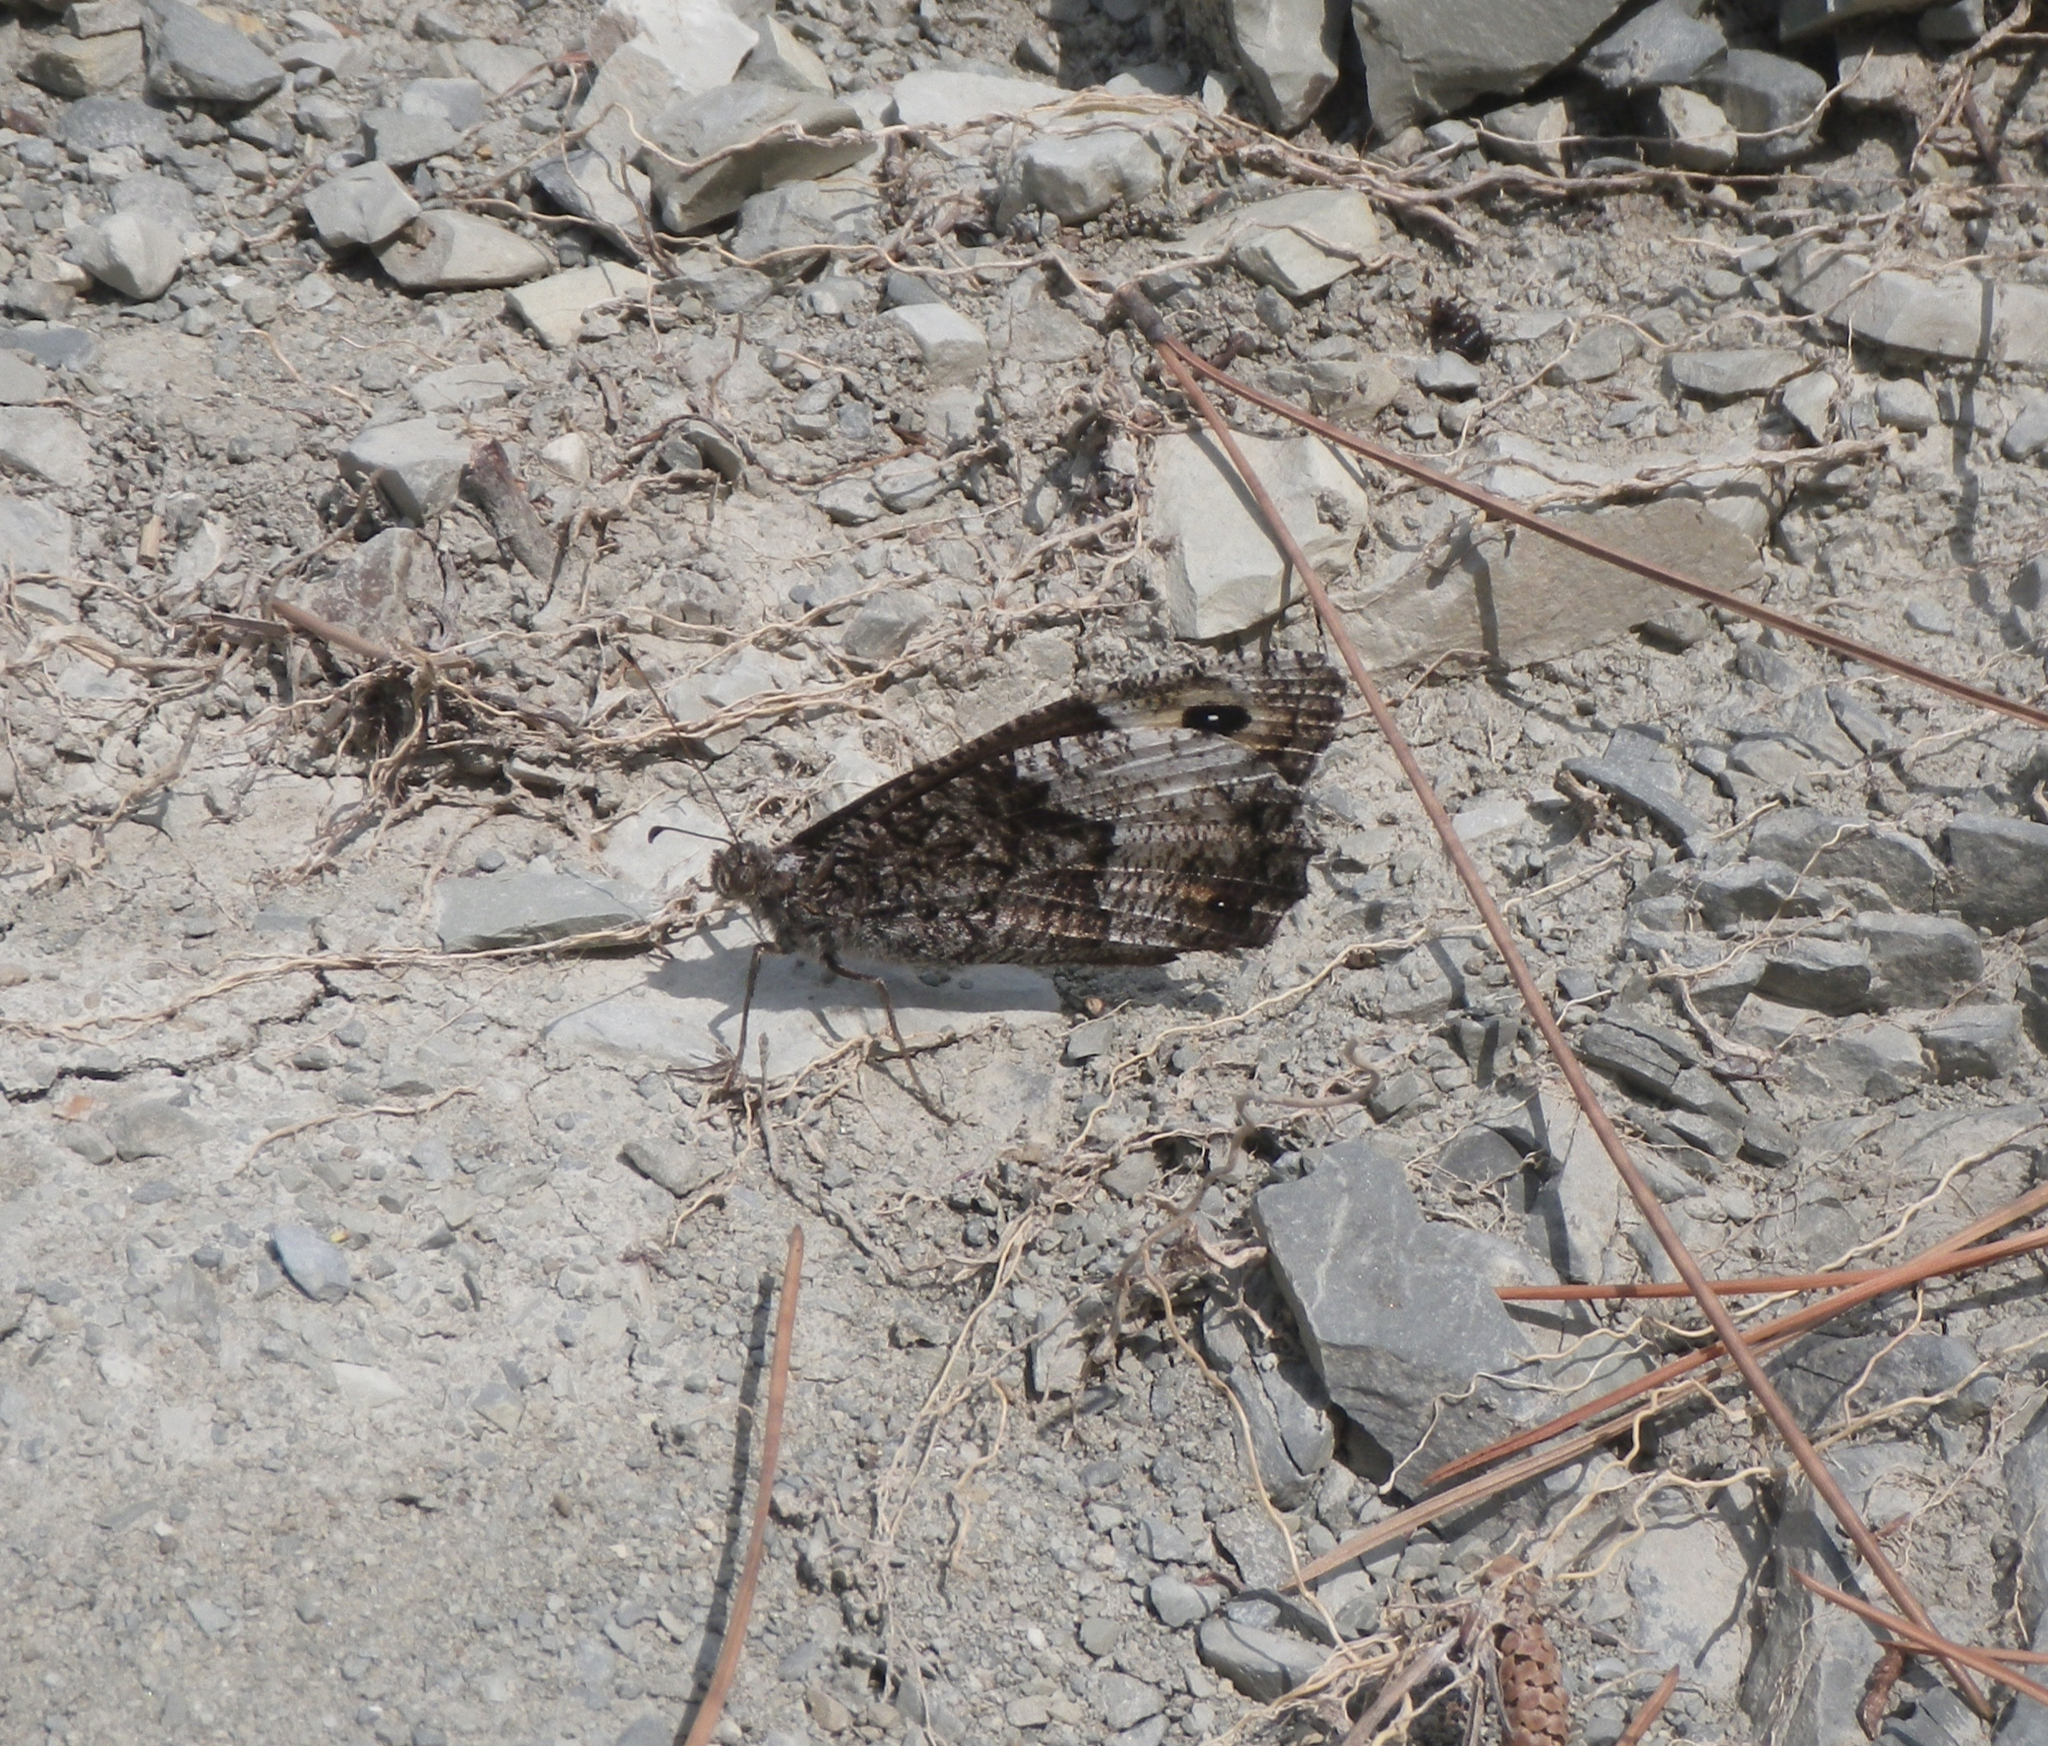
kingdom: Animalia
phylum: Arthropoda
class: Insecta
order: Lepidoptera
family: Nymphalidae
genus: Hipparchia
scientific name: Hipparchia fagi
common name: Woodland grayling
